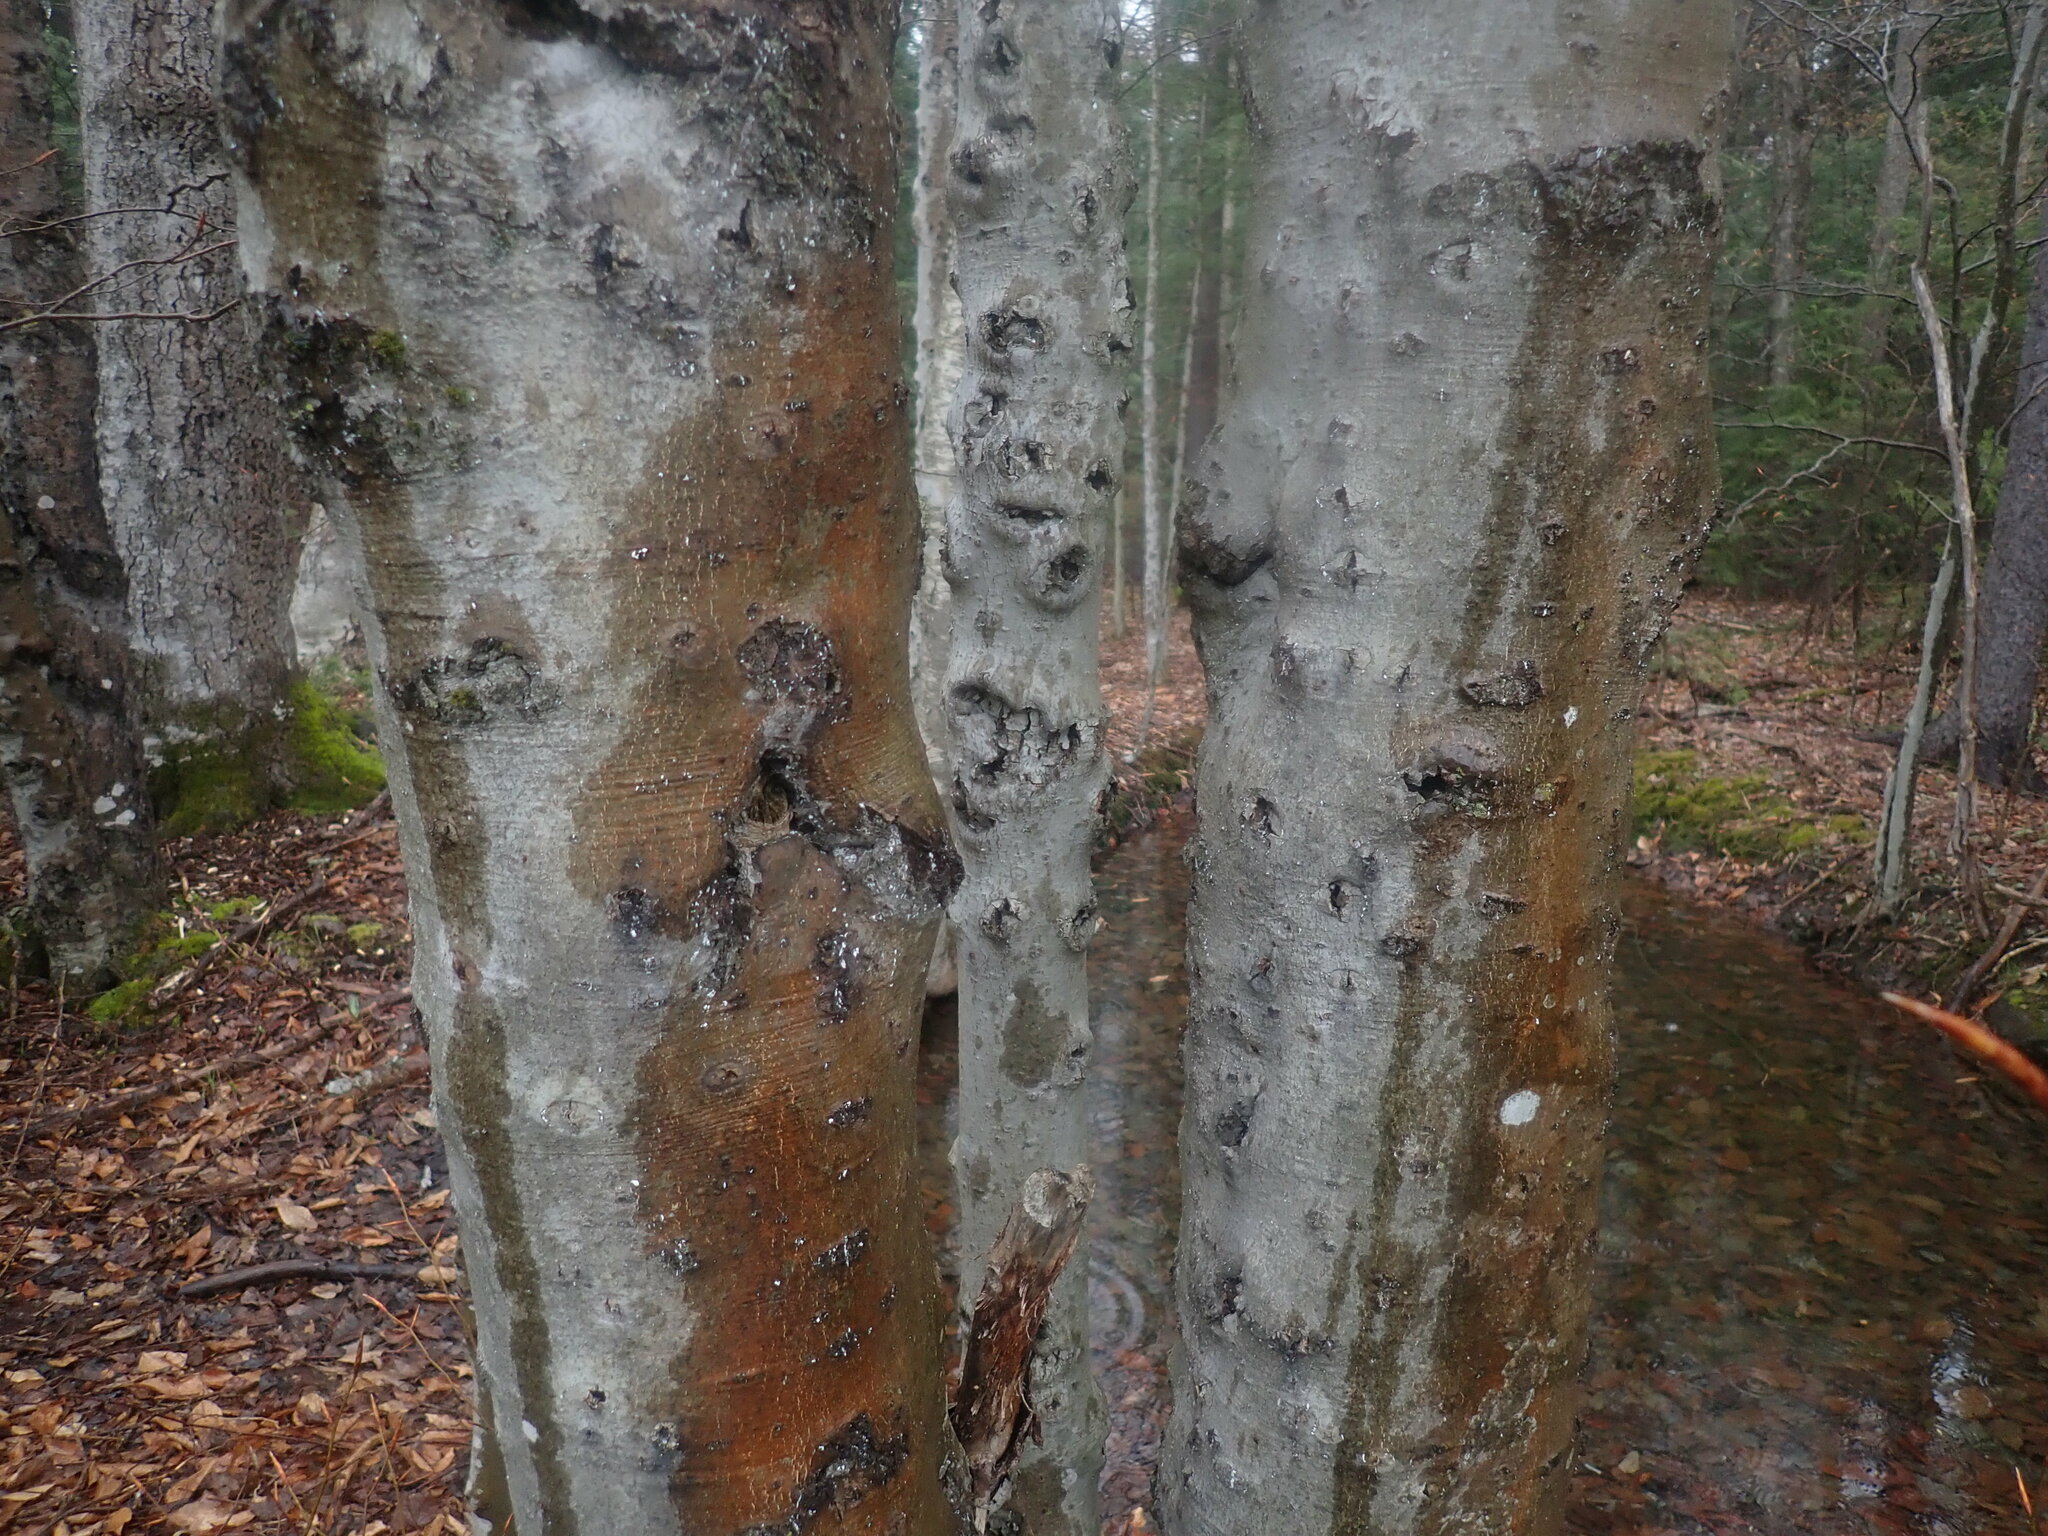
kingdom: Fungi
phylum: Ascomycota
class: Sordariomycetes
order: Hypocreales
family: Nectriaceae
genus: Neonectria
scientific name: Neonectria faginata
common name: Beech bark canker
